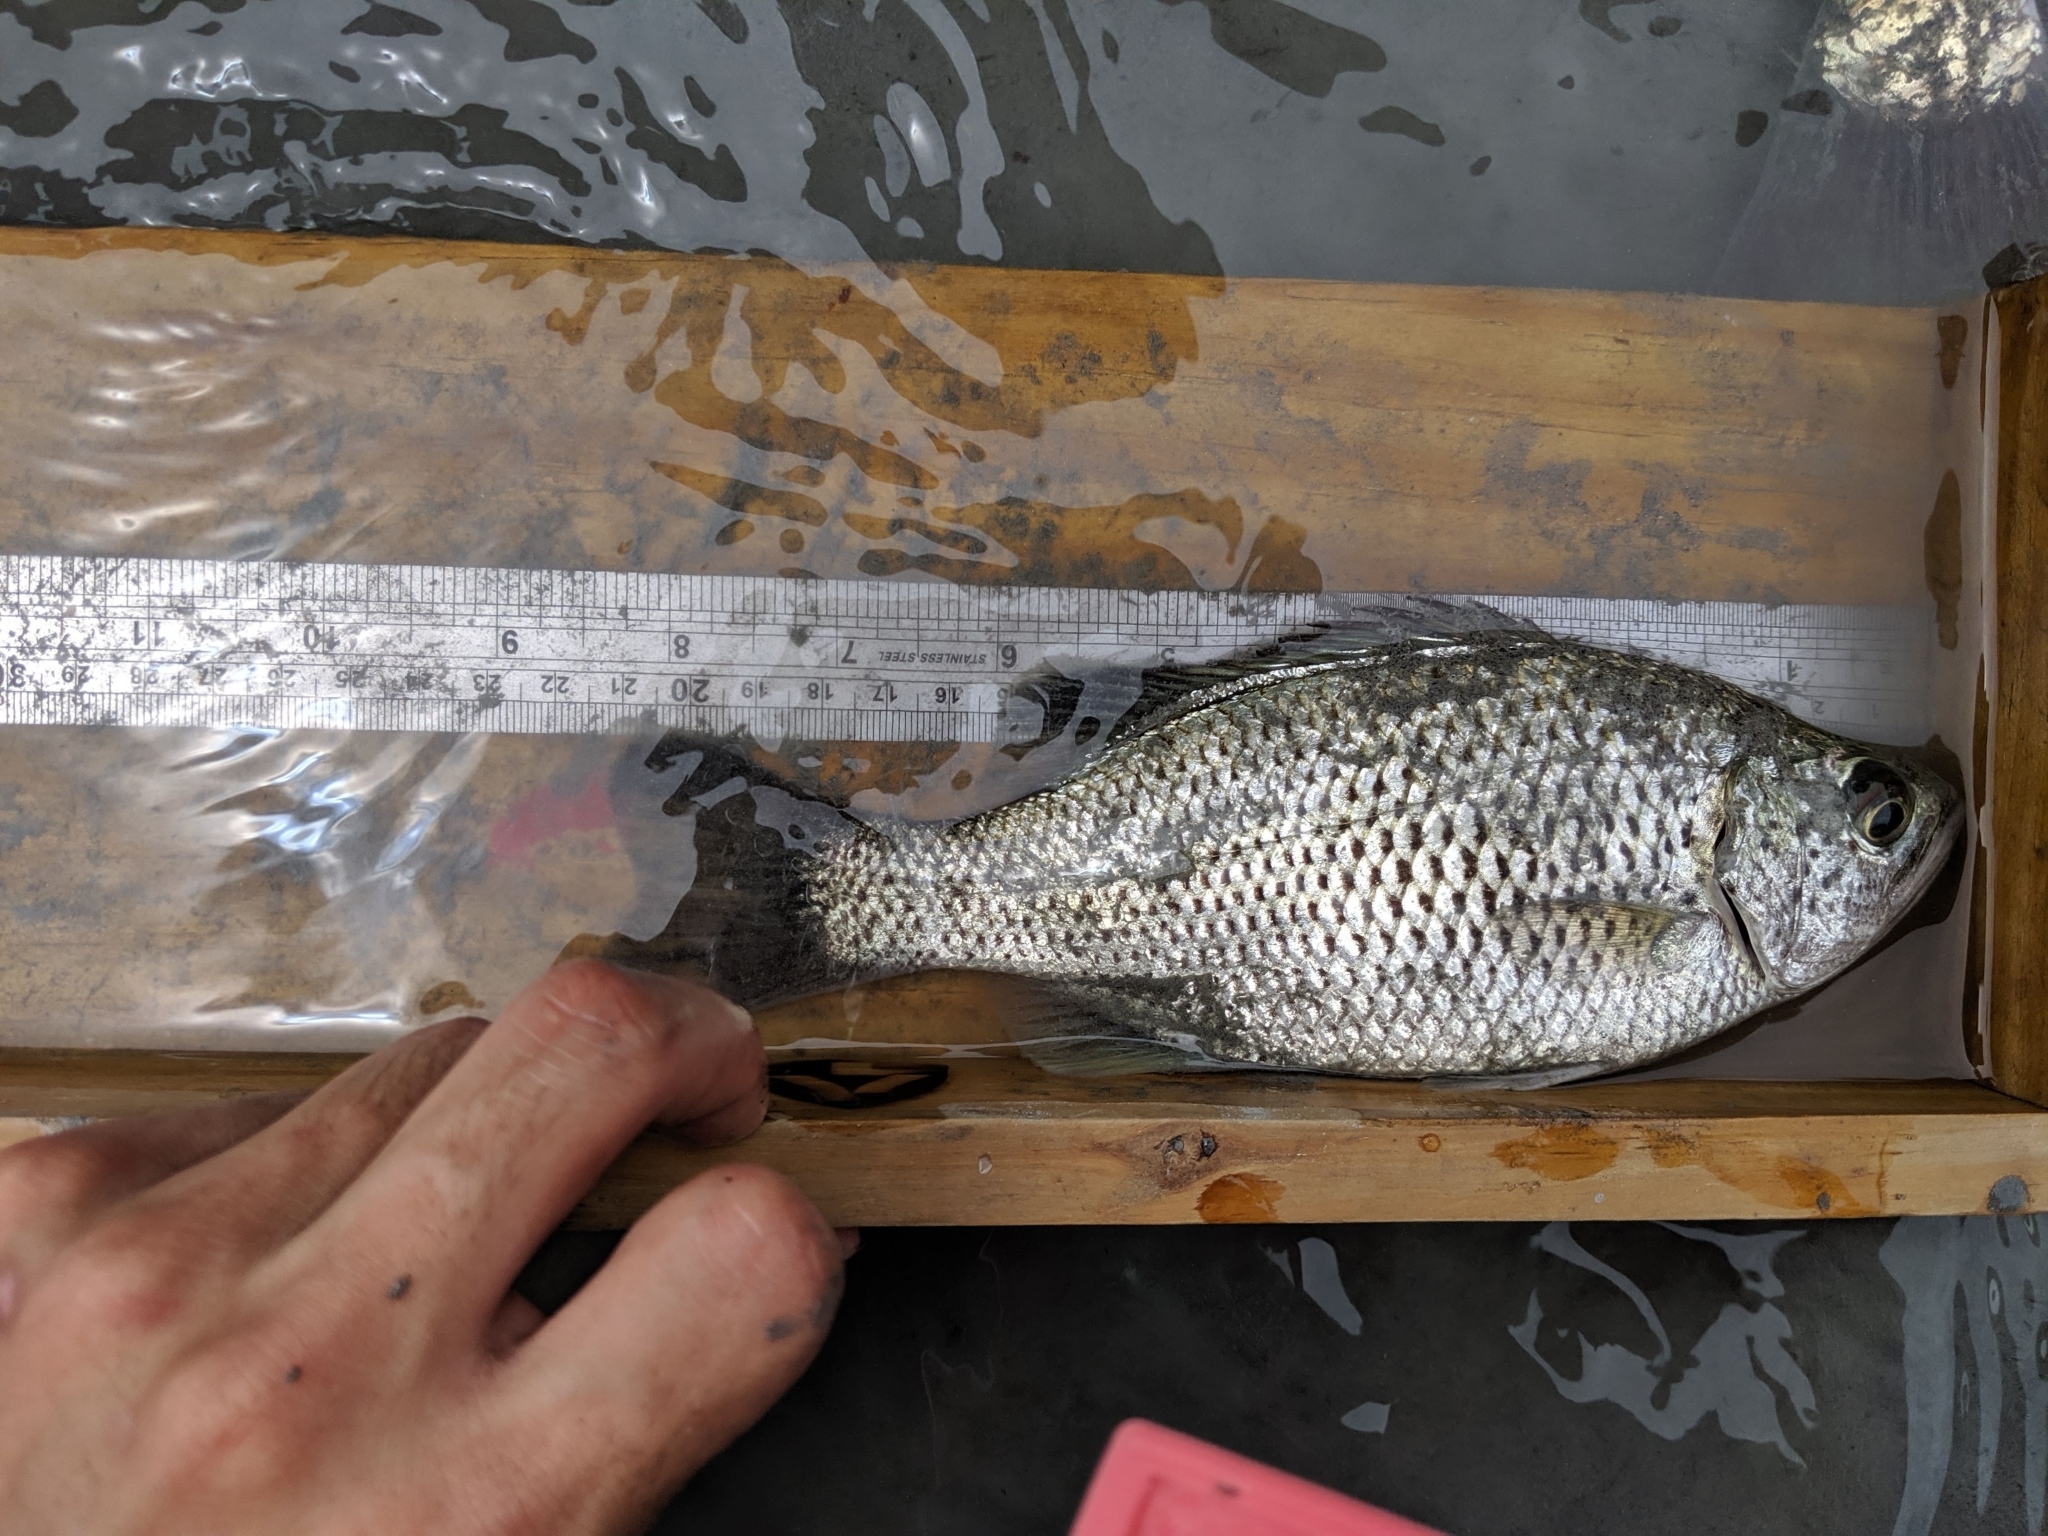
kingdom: Animalia
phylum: Chordata
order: Perciformes
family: Kuhliidae
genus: Kuhlia
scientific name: Kuhlia rupestris
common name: Rock flagtail
